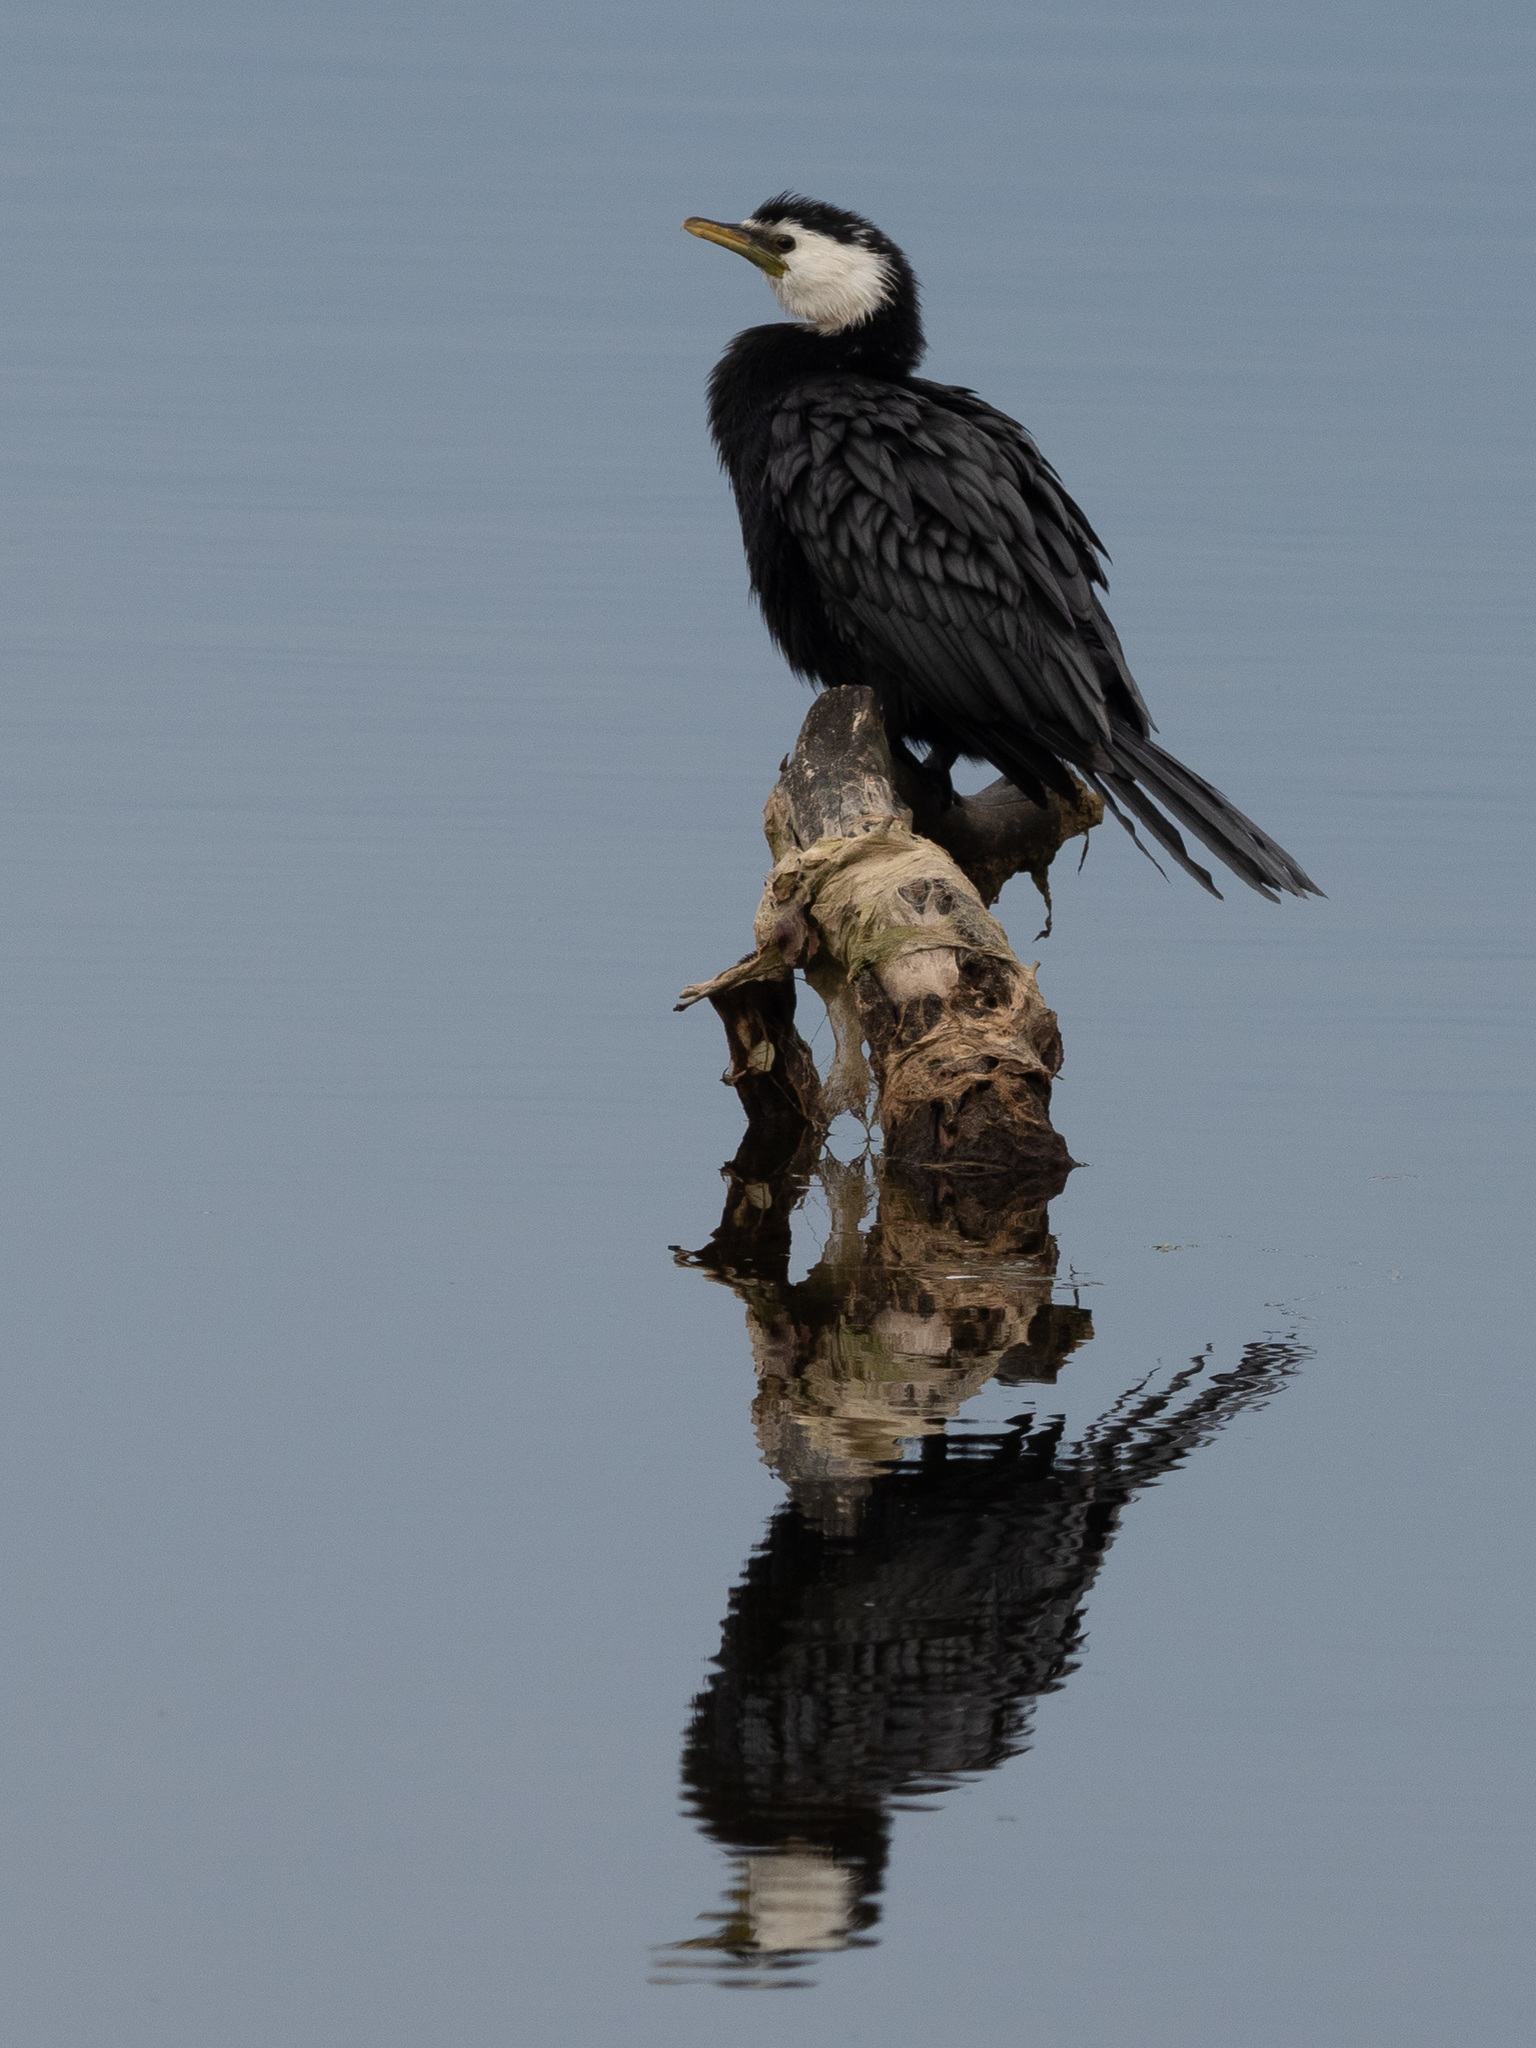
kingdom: Animalia
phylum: Chordata
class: Aves
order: Suliformes
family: Phalacrocoracidae
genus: Microcarbo
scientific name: Microcarbo melanoleucos
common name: Little pied cormorant
